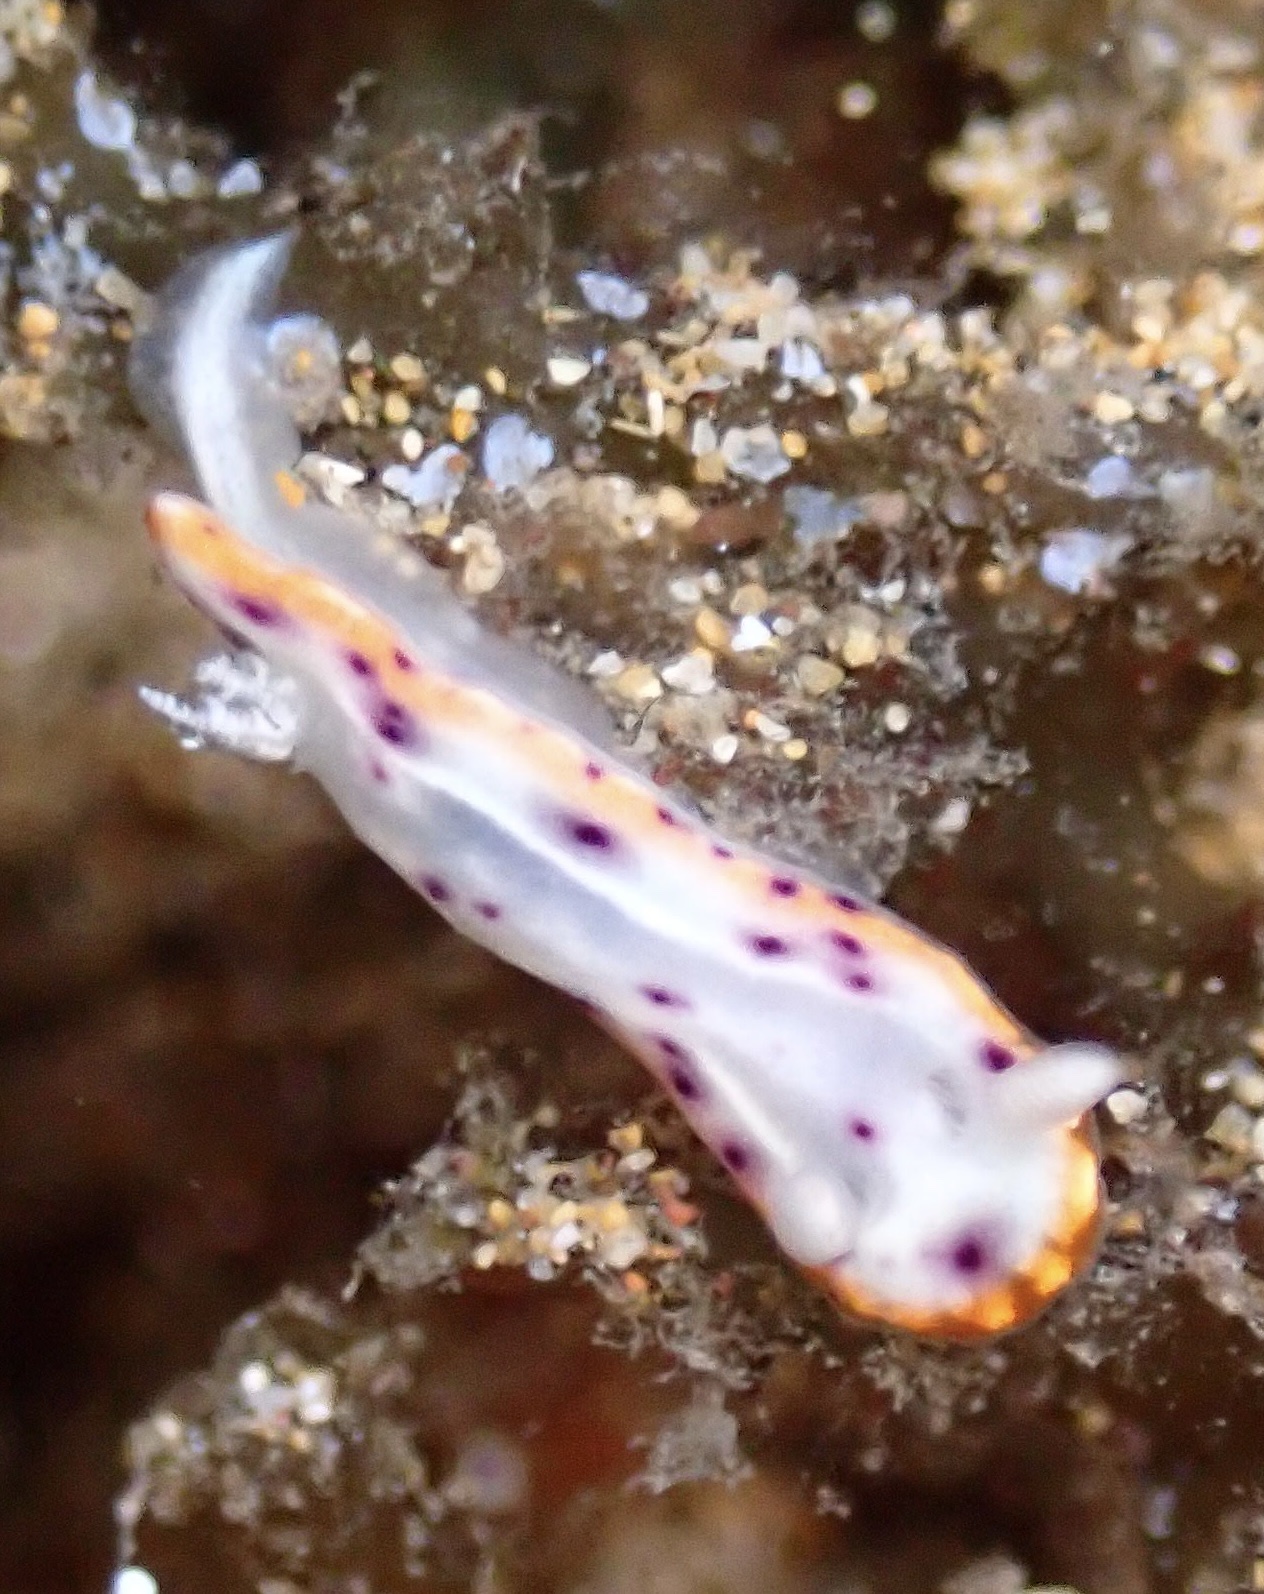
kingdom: Animalia
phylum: Mollusca
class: Gastropoda
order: Nudibranchia
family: Chromodorididae
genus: Goniobranchus
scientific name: Goniobranchus decorus
